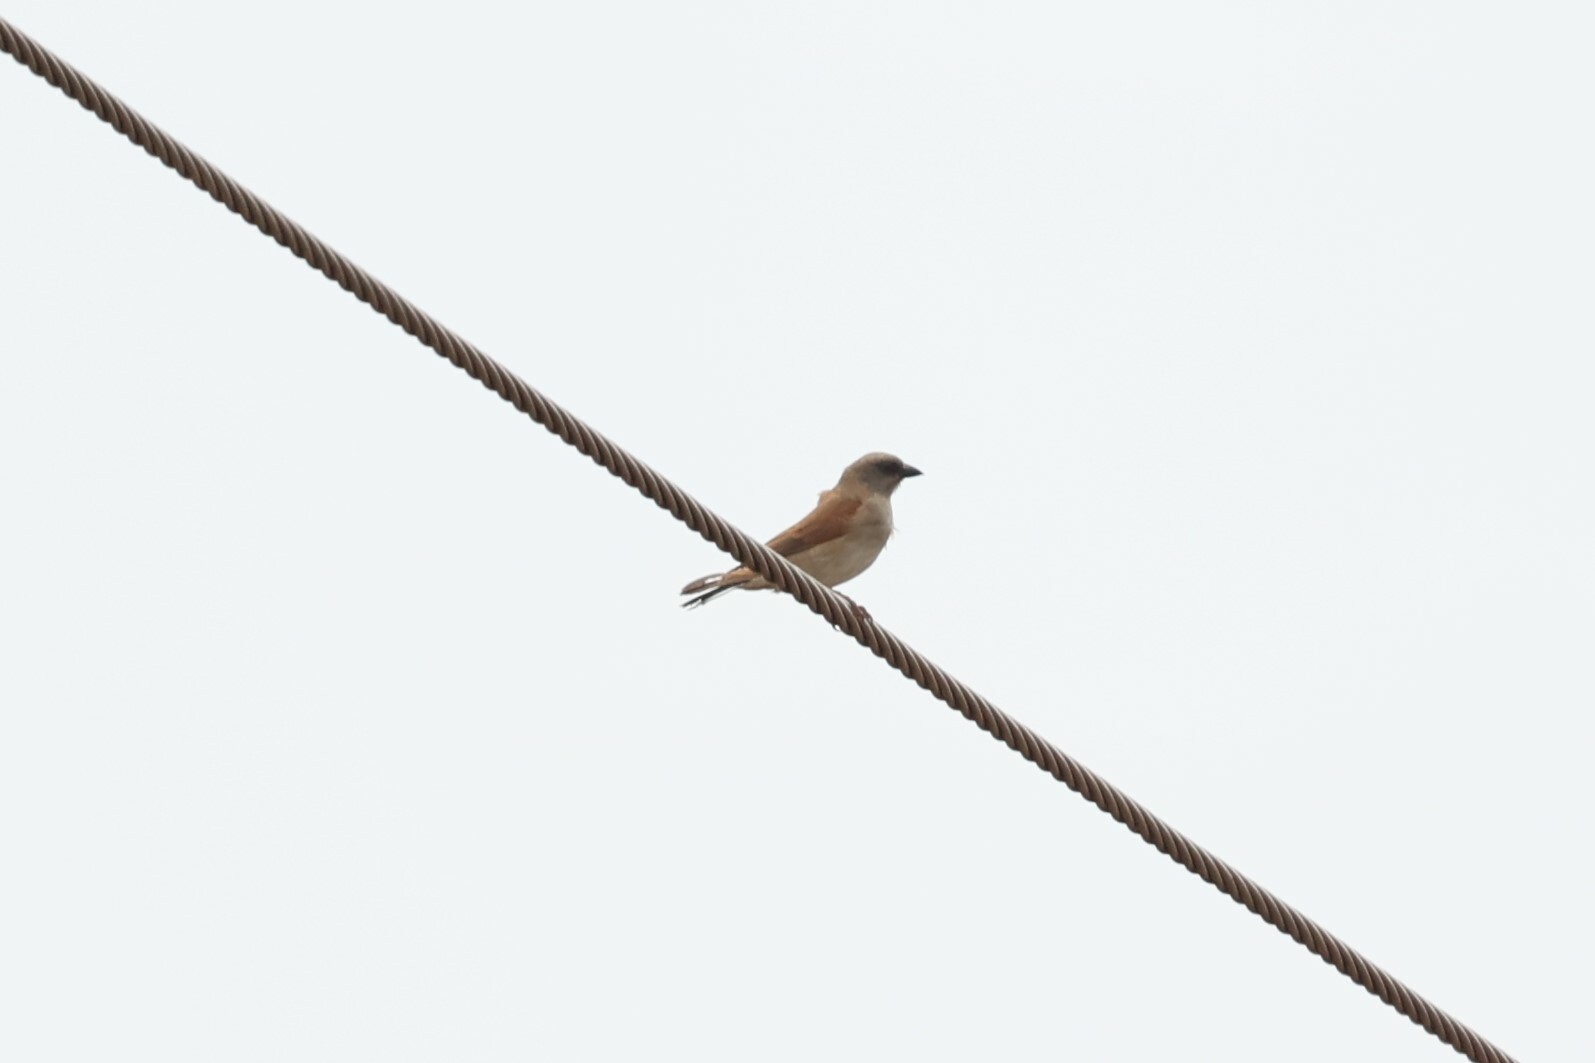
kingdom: Animalia
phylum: Chordata
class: Aves
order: Passeriformes
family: Passeridae
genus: Passer
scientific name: Passer griseus
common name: Northern grey-headed sparrow
